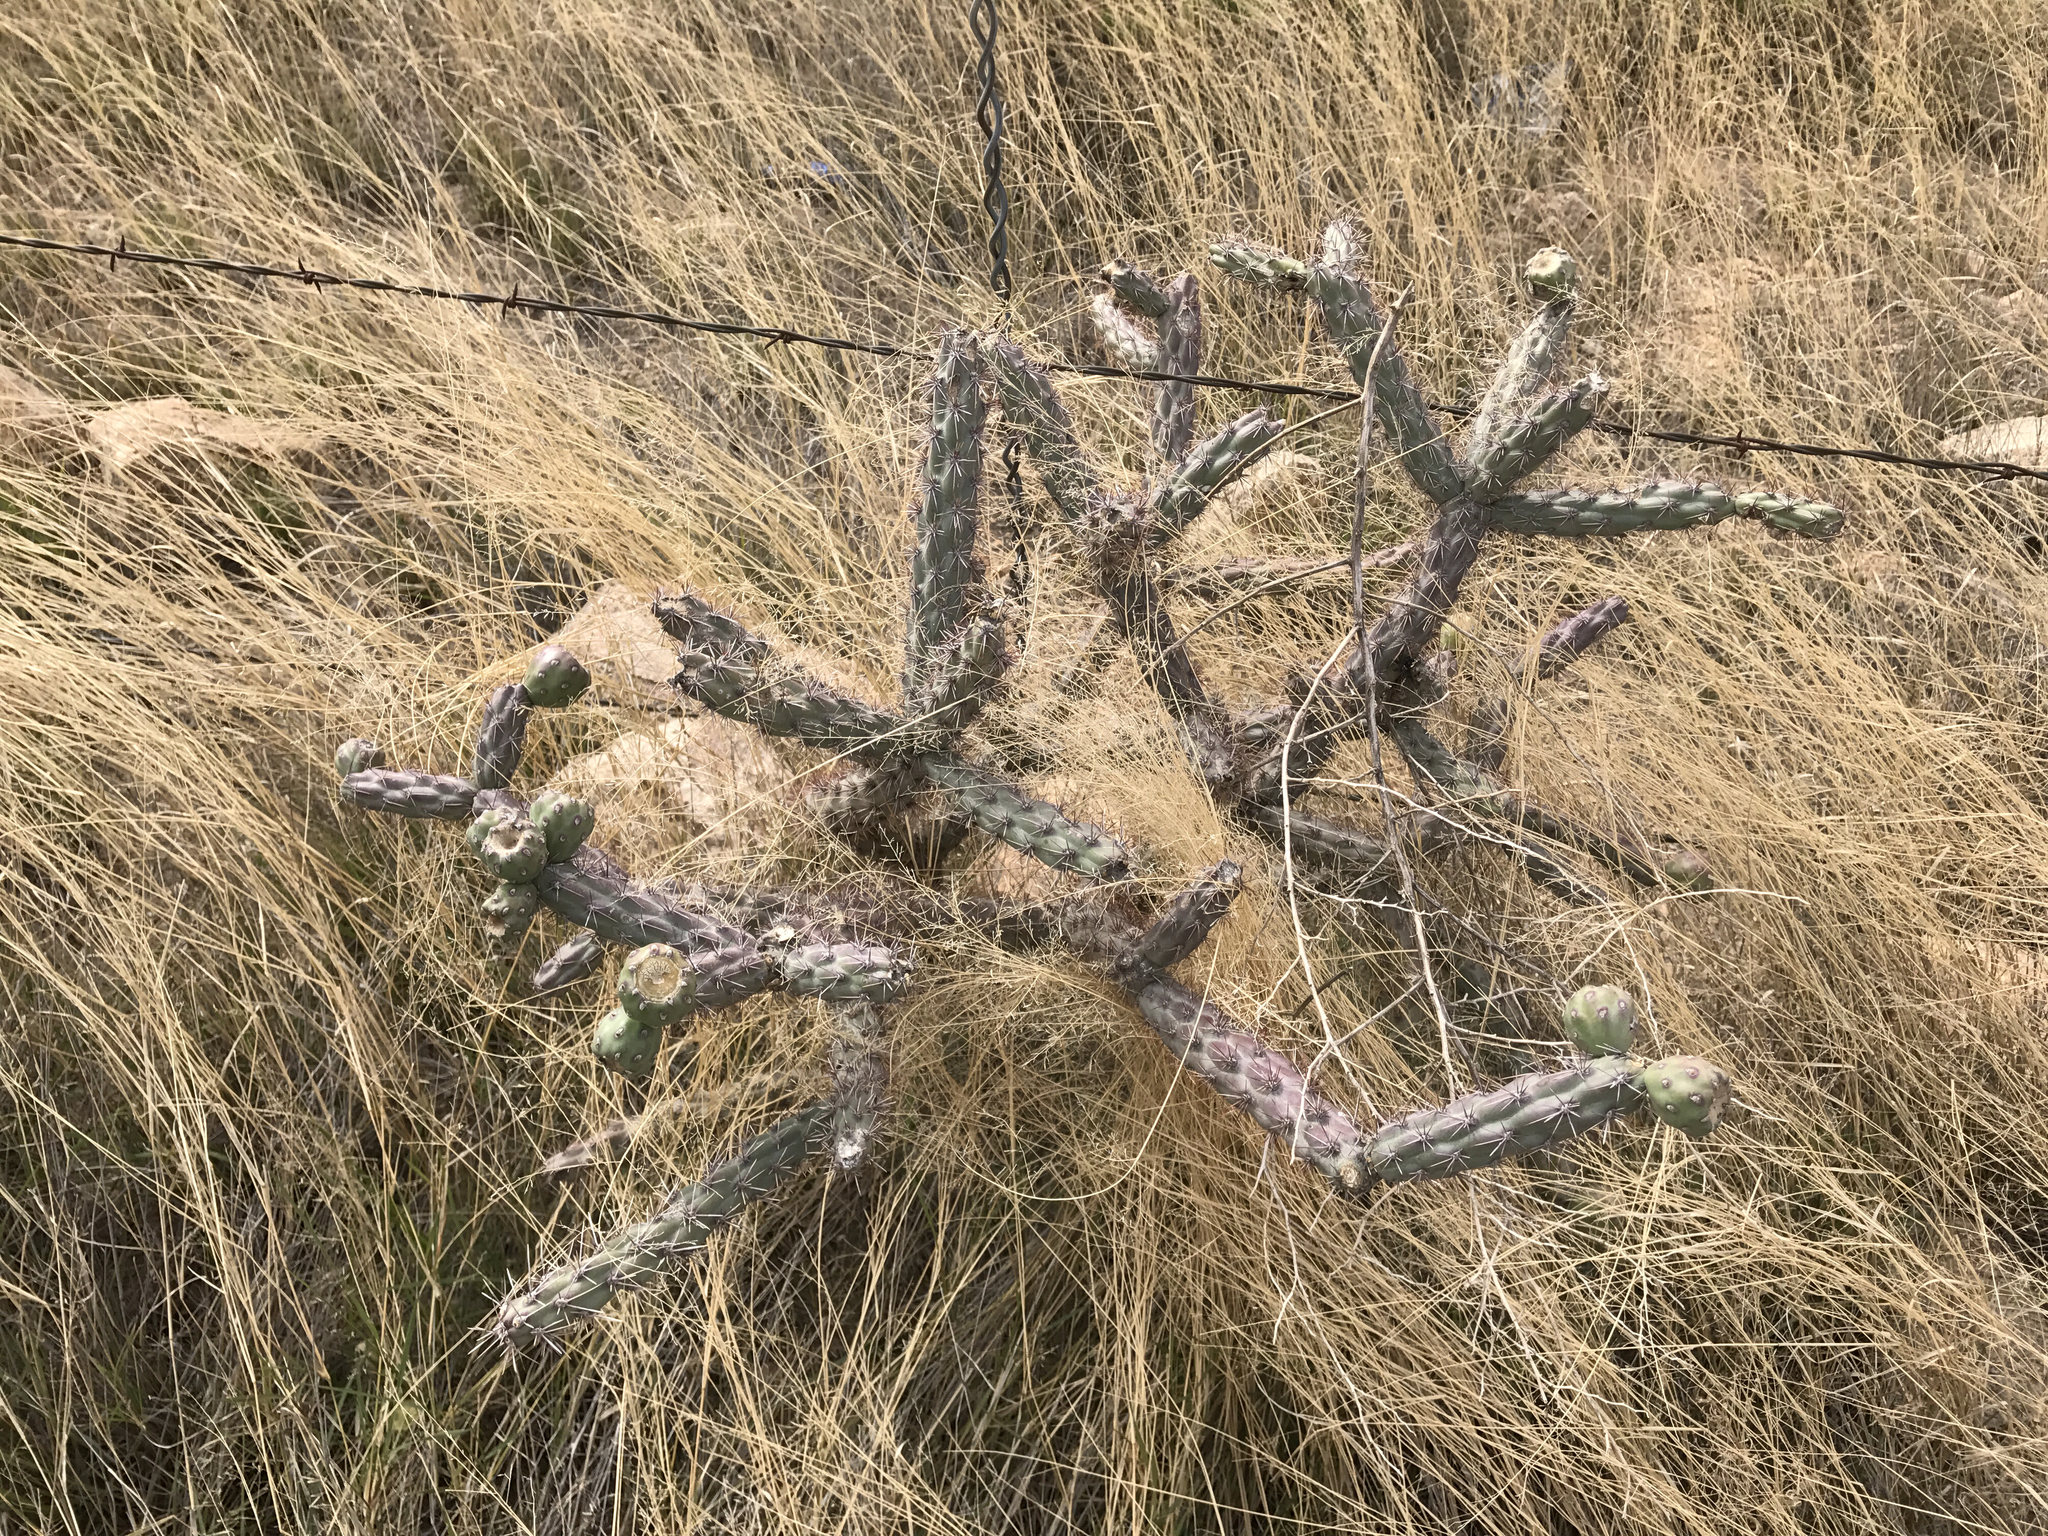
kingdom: Plantae
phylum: Tracheophyta
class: Magnoliopsida
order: Caryophyllales
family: Cactaceae
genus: Cylindropuntia
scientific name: Cylindropuntia imbricata
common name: Candelabrum cactus
